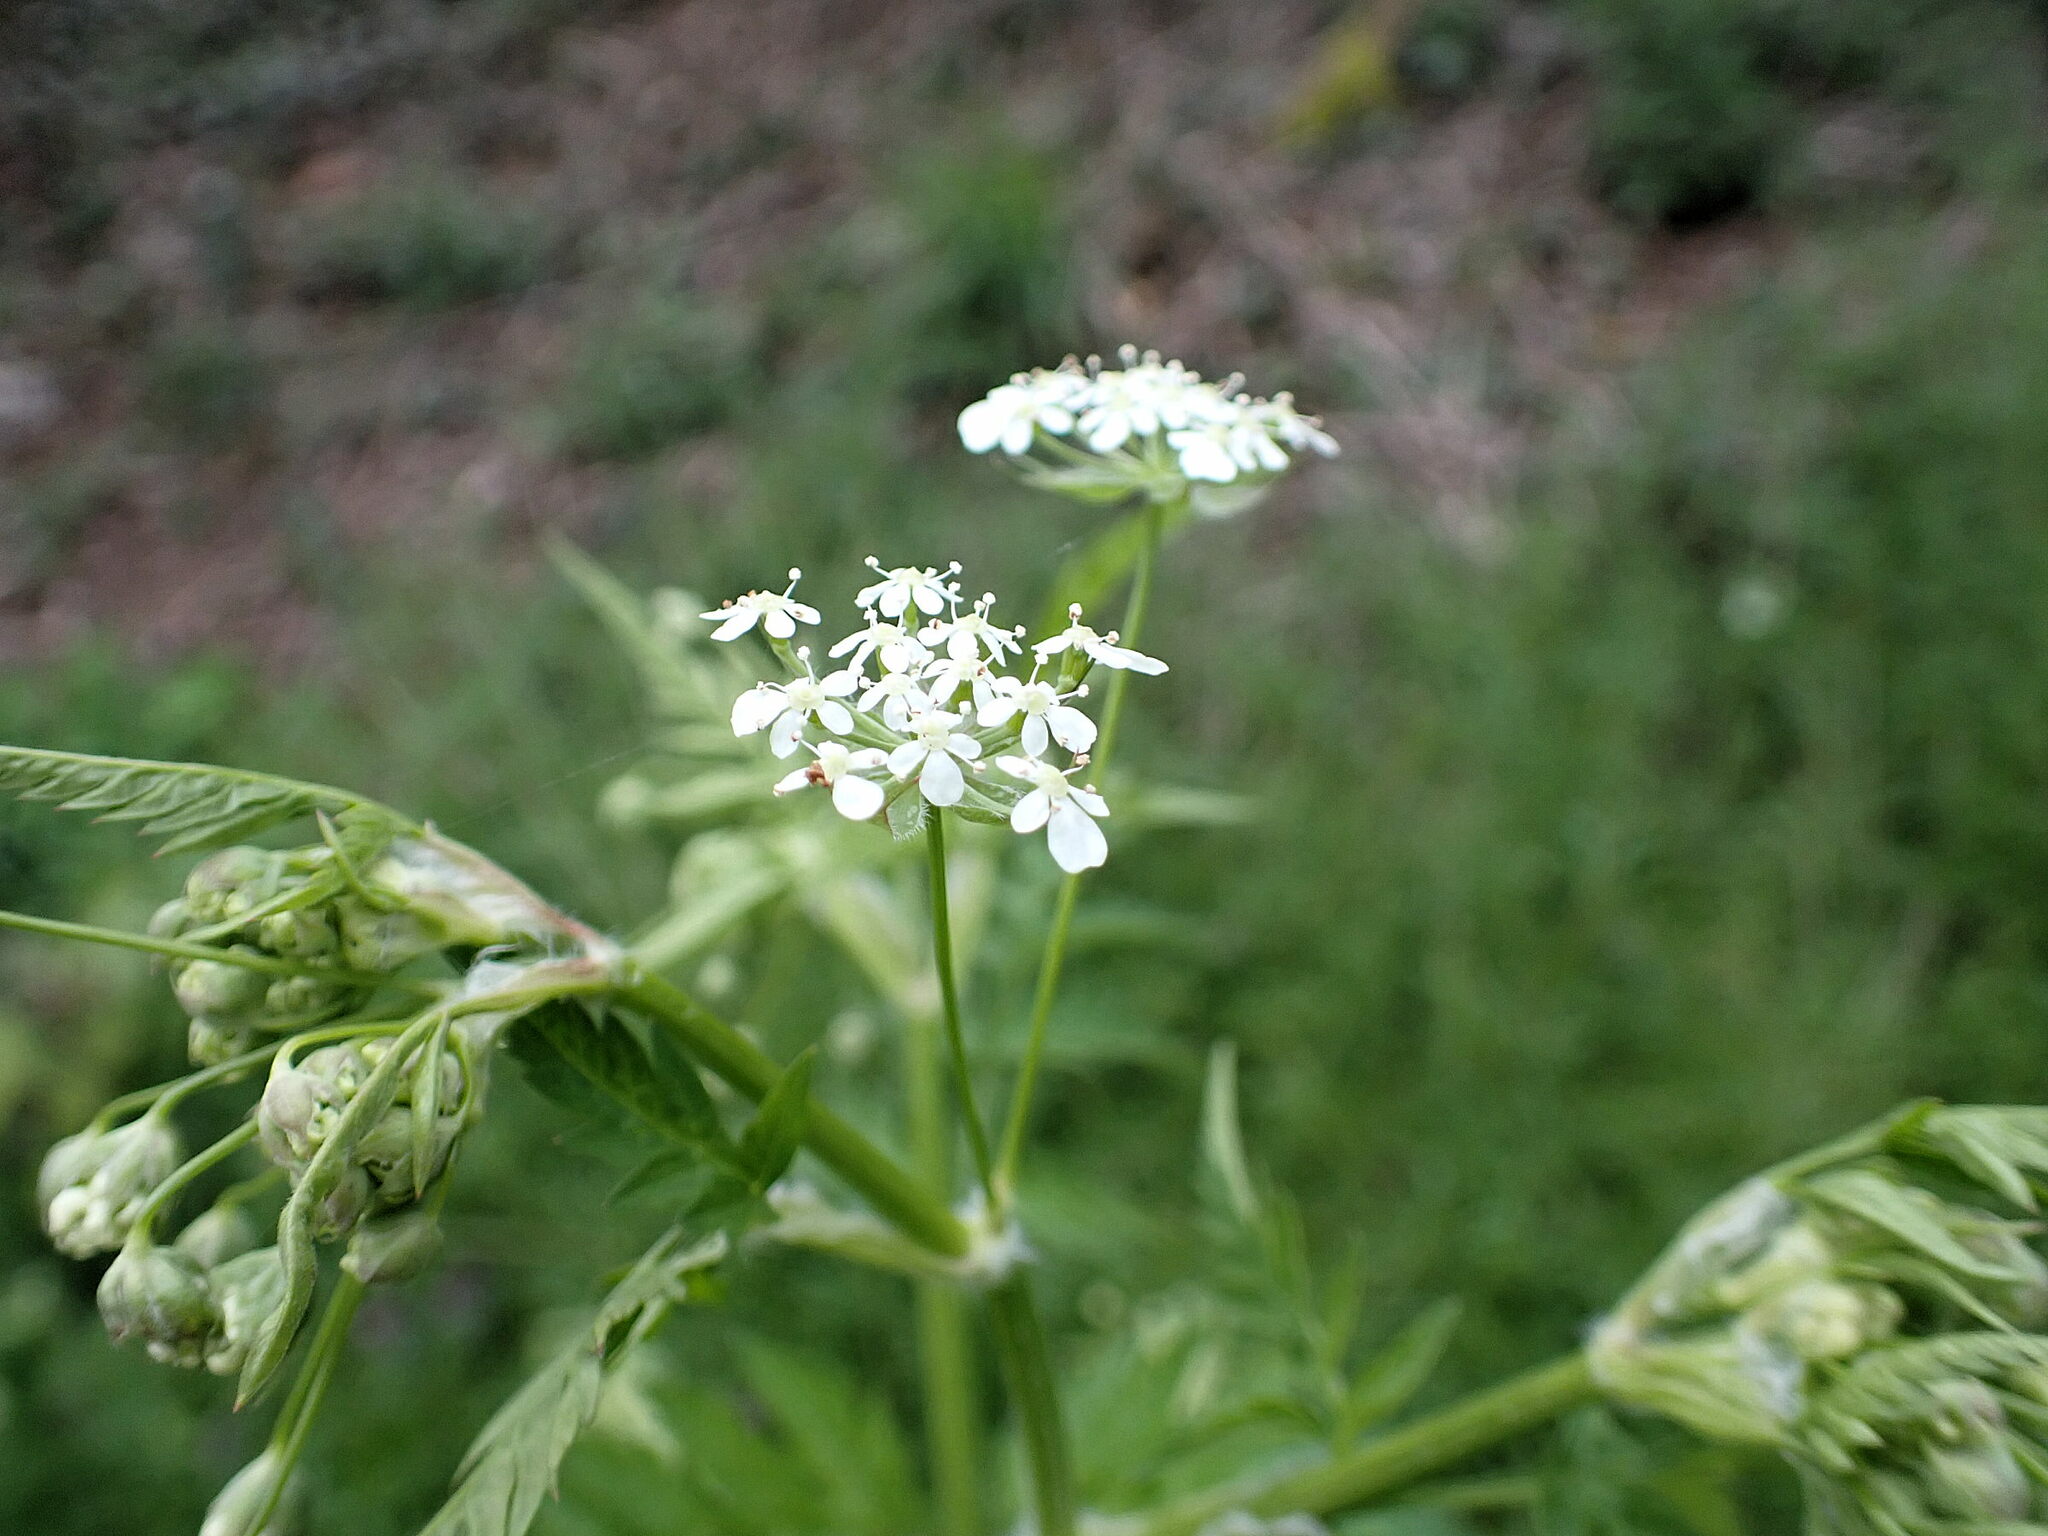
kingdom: Plantae
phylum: Tracheophyta
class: Magnoliopsida
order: Apiales
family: Apiaceae
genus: Anthriscus
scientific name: Anthriscus sylvestris
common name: Cow parsley
